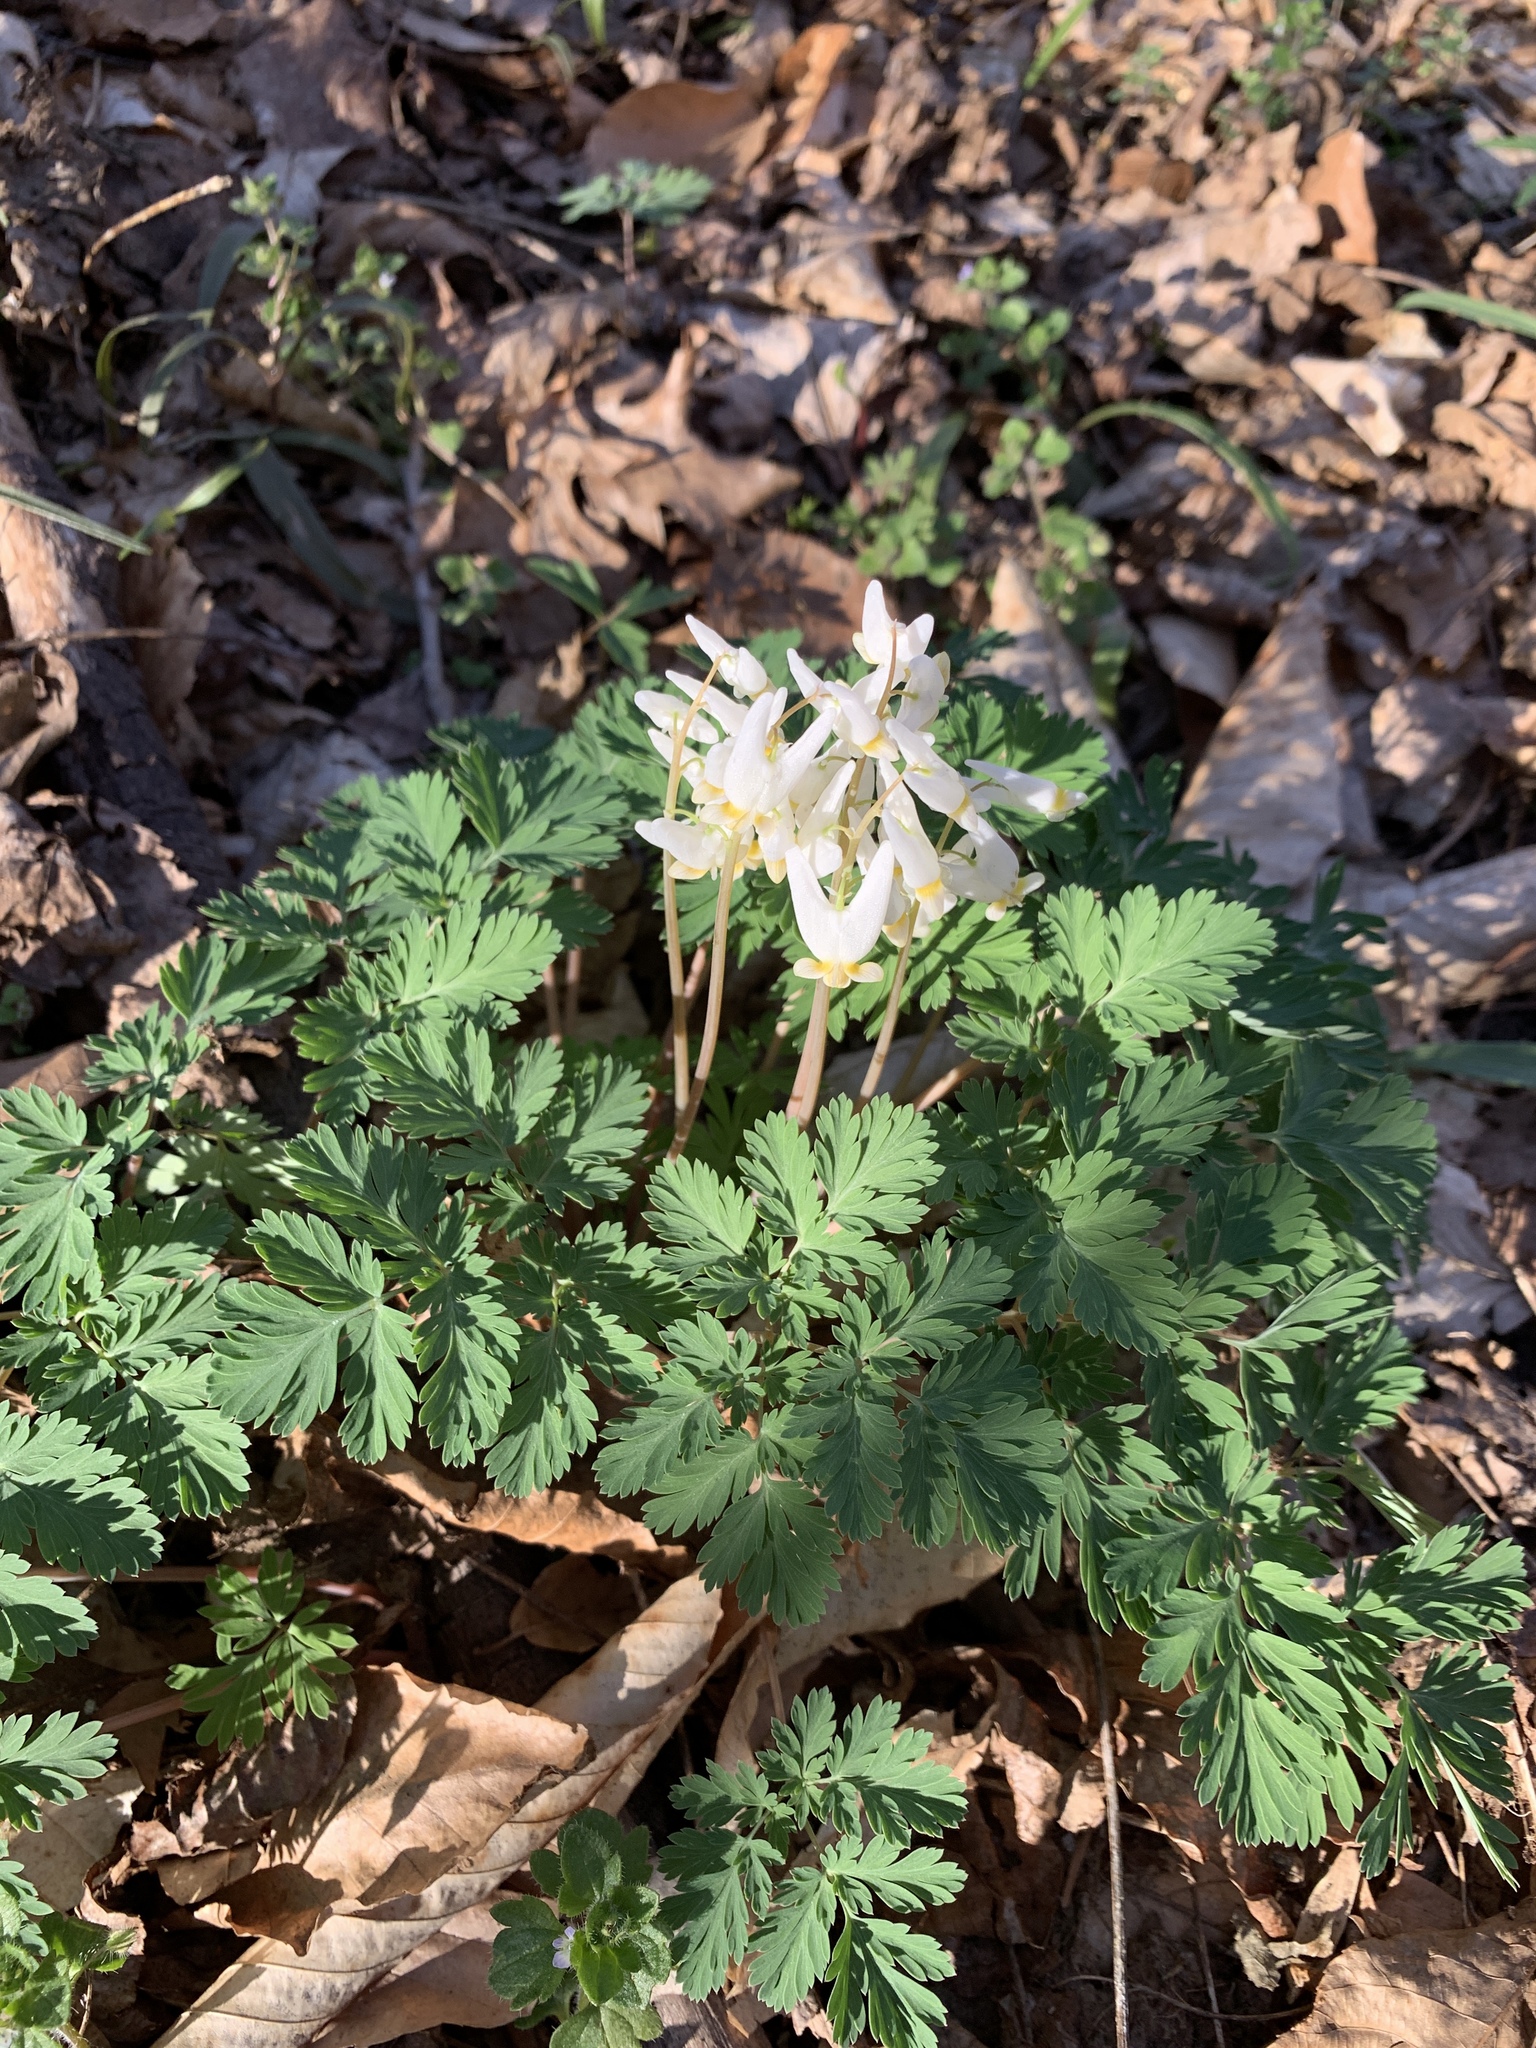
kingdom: Plantae
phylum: Tracheophyta
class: Magnoliopsida
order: Ranunculales
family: Papaveraceae
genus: Dicentra
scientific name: Dicentra cucullaria
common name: Dutchman's breeches
